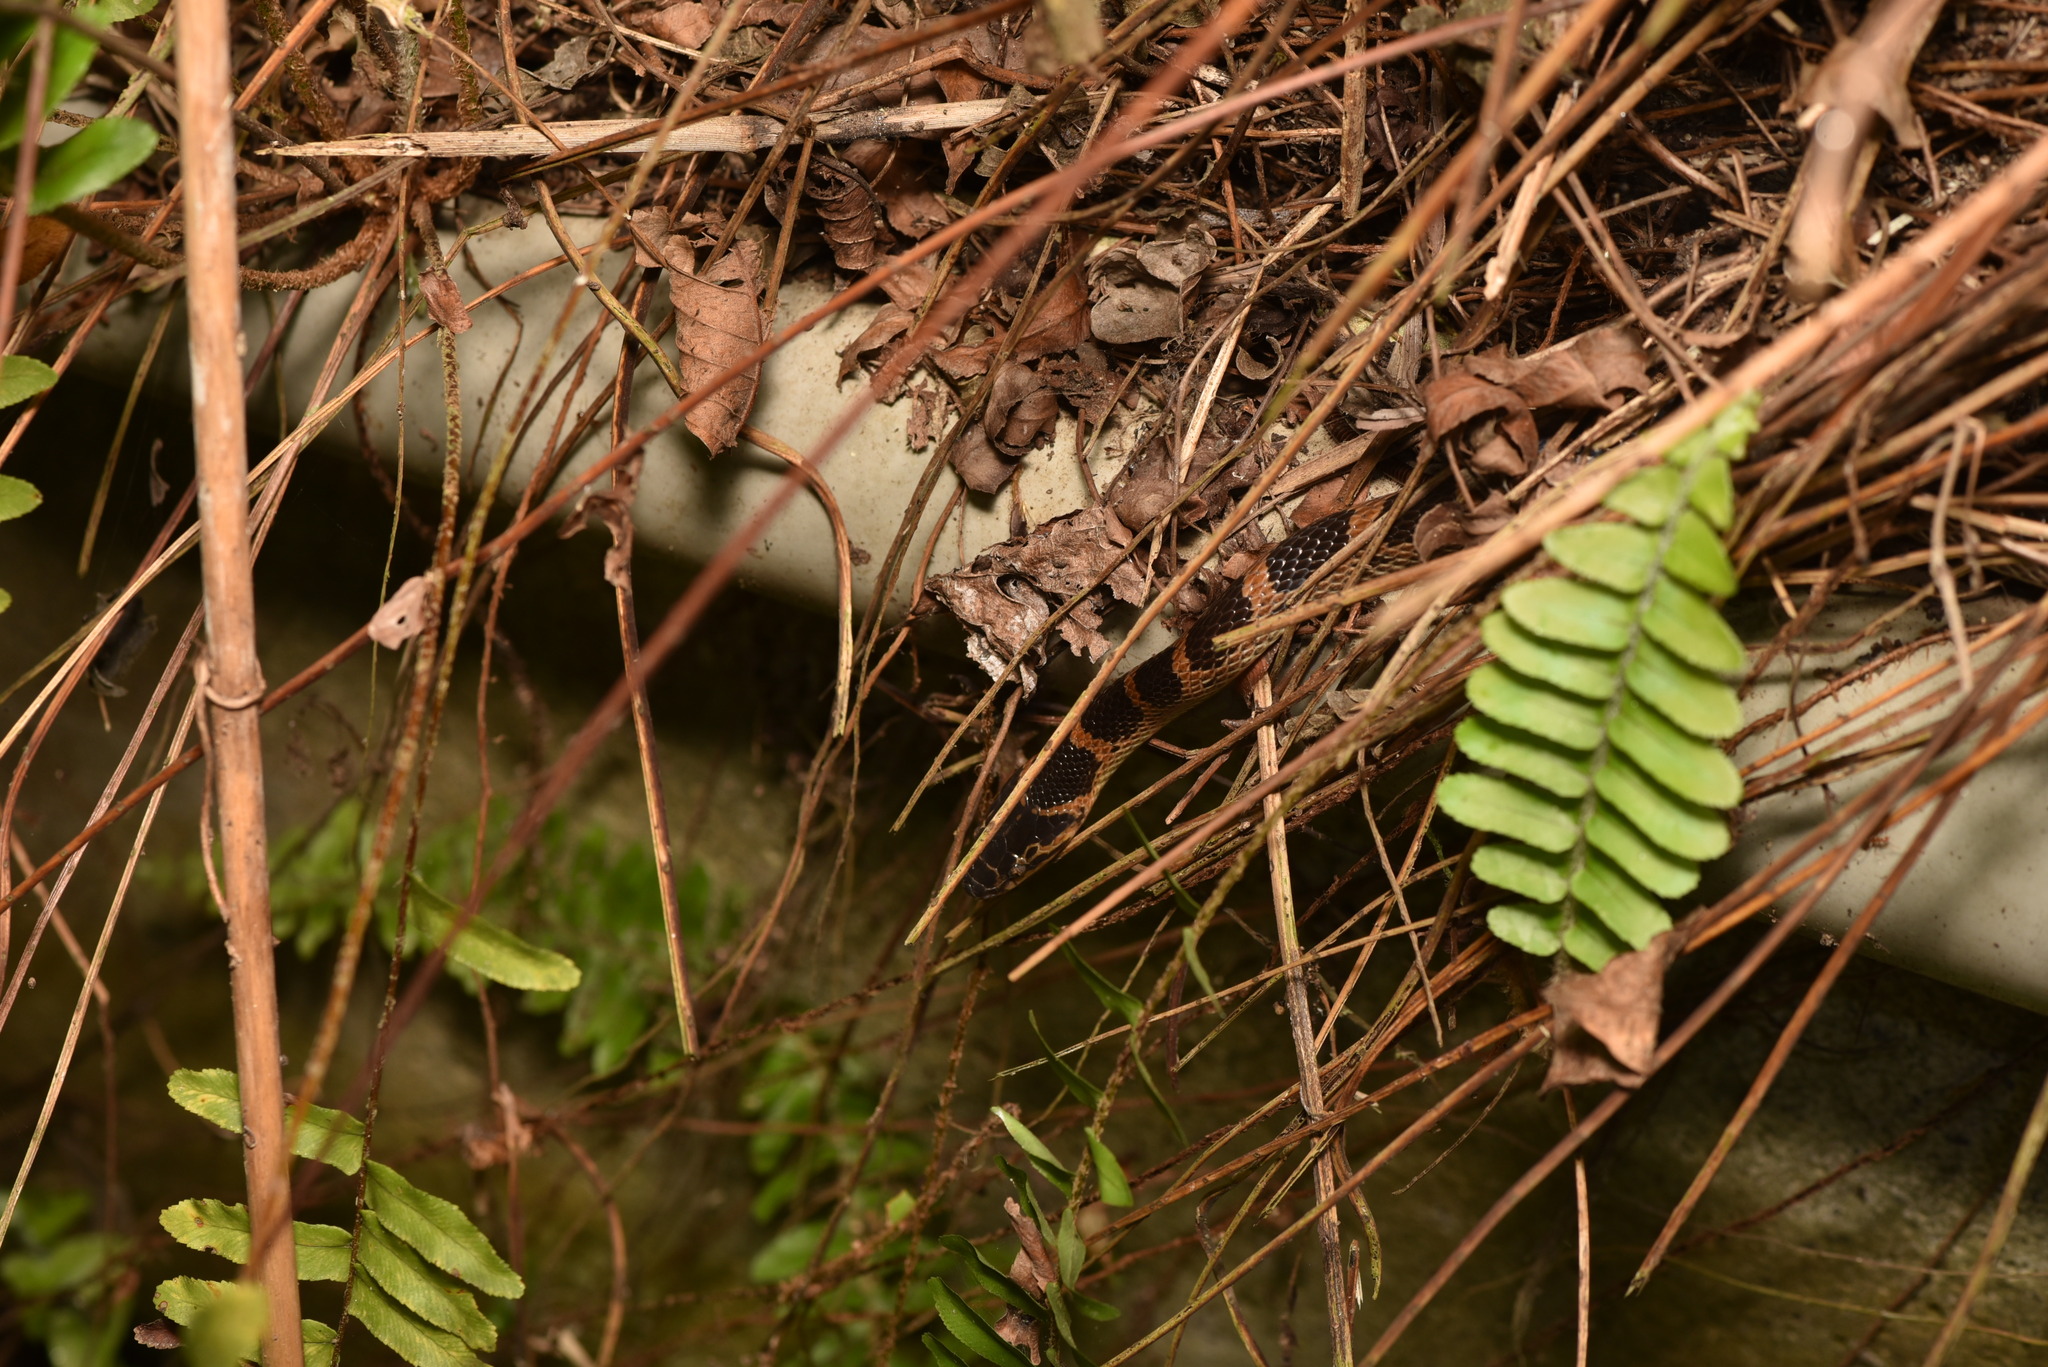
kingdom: Animalia
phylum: Chordata
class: Squamata
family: Colubridae
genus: Lycodon
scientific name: Lycodon rufozonatus
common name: Red-banded snake
